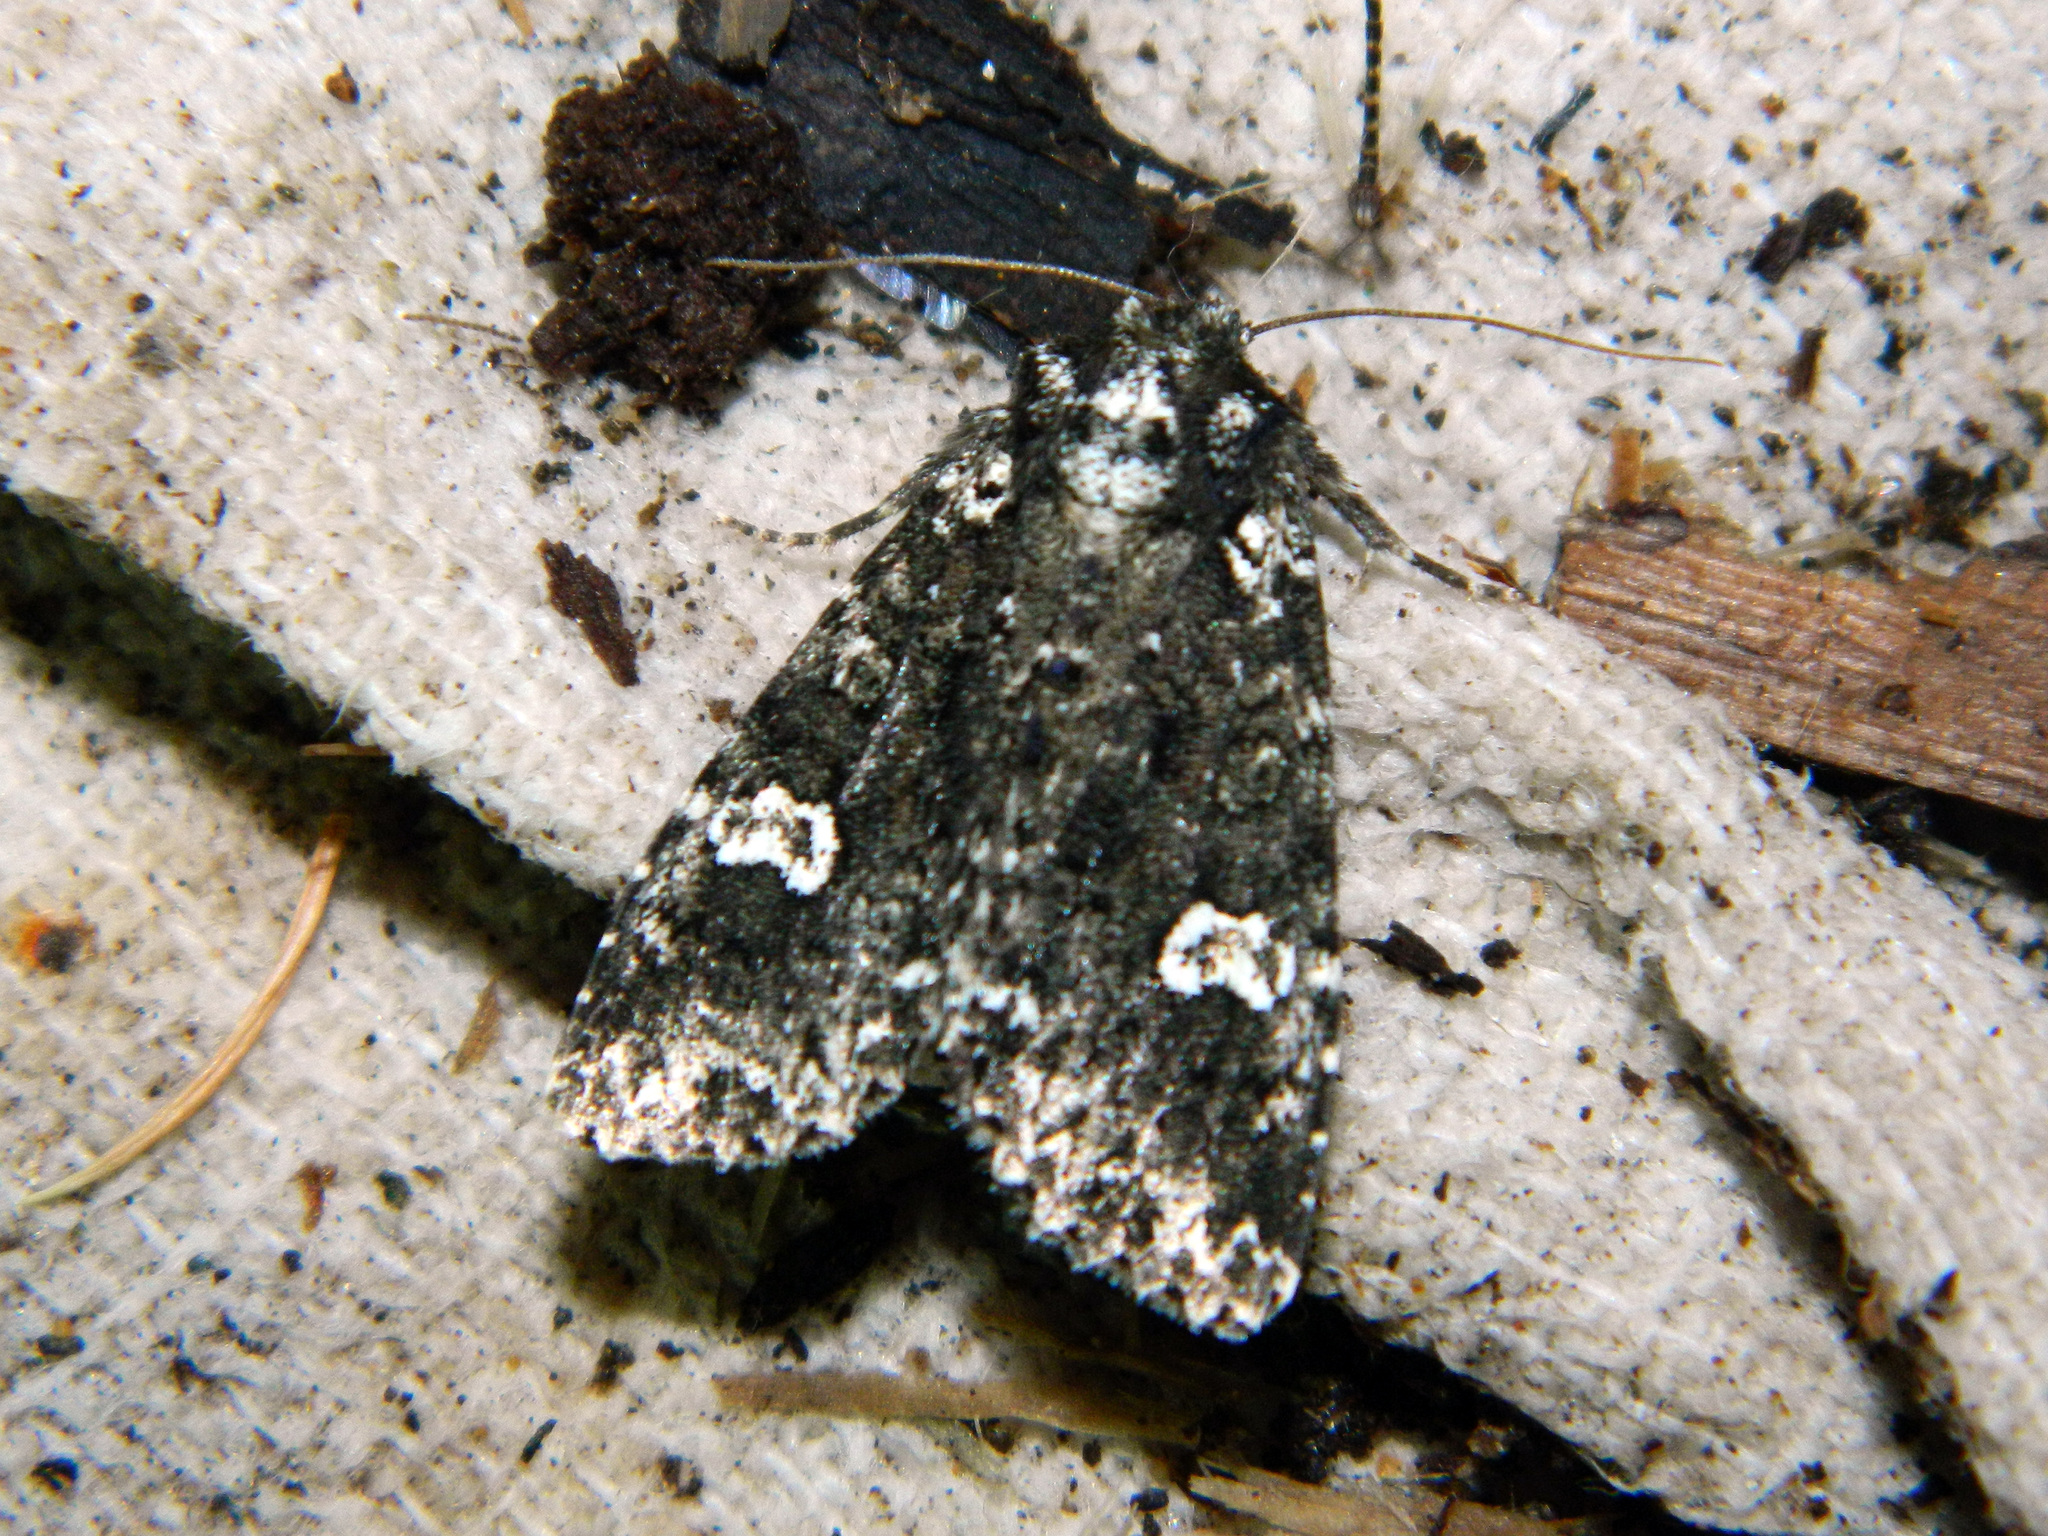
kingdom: Animalia
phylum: Arthropoda
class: Insecta
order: Lepidoptera
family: Noctuidae
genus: Melanchra
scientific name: Melanchra adjuncta
